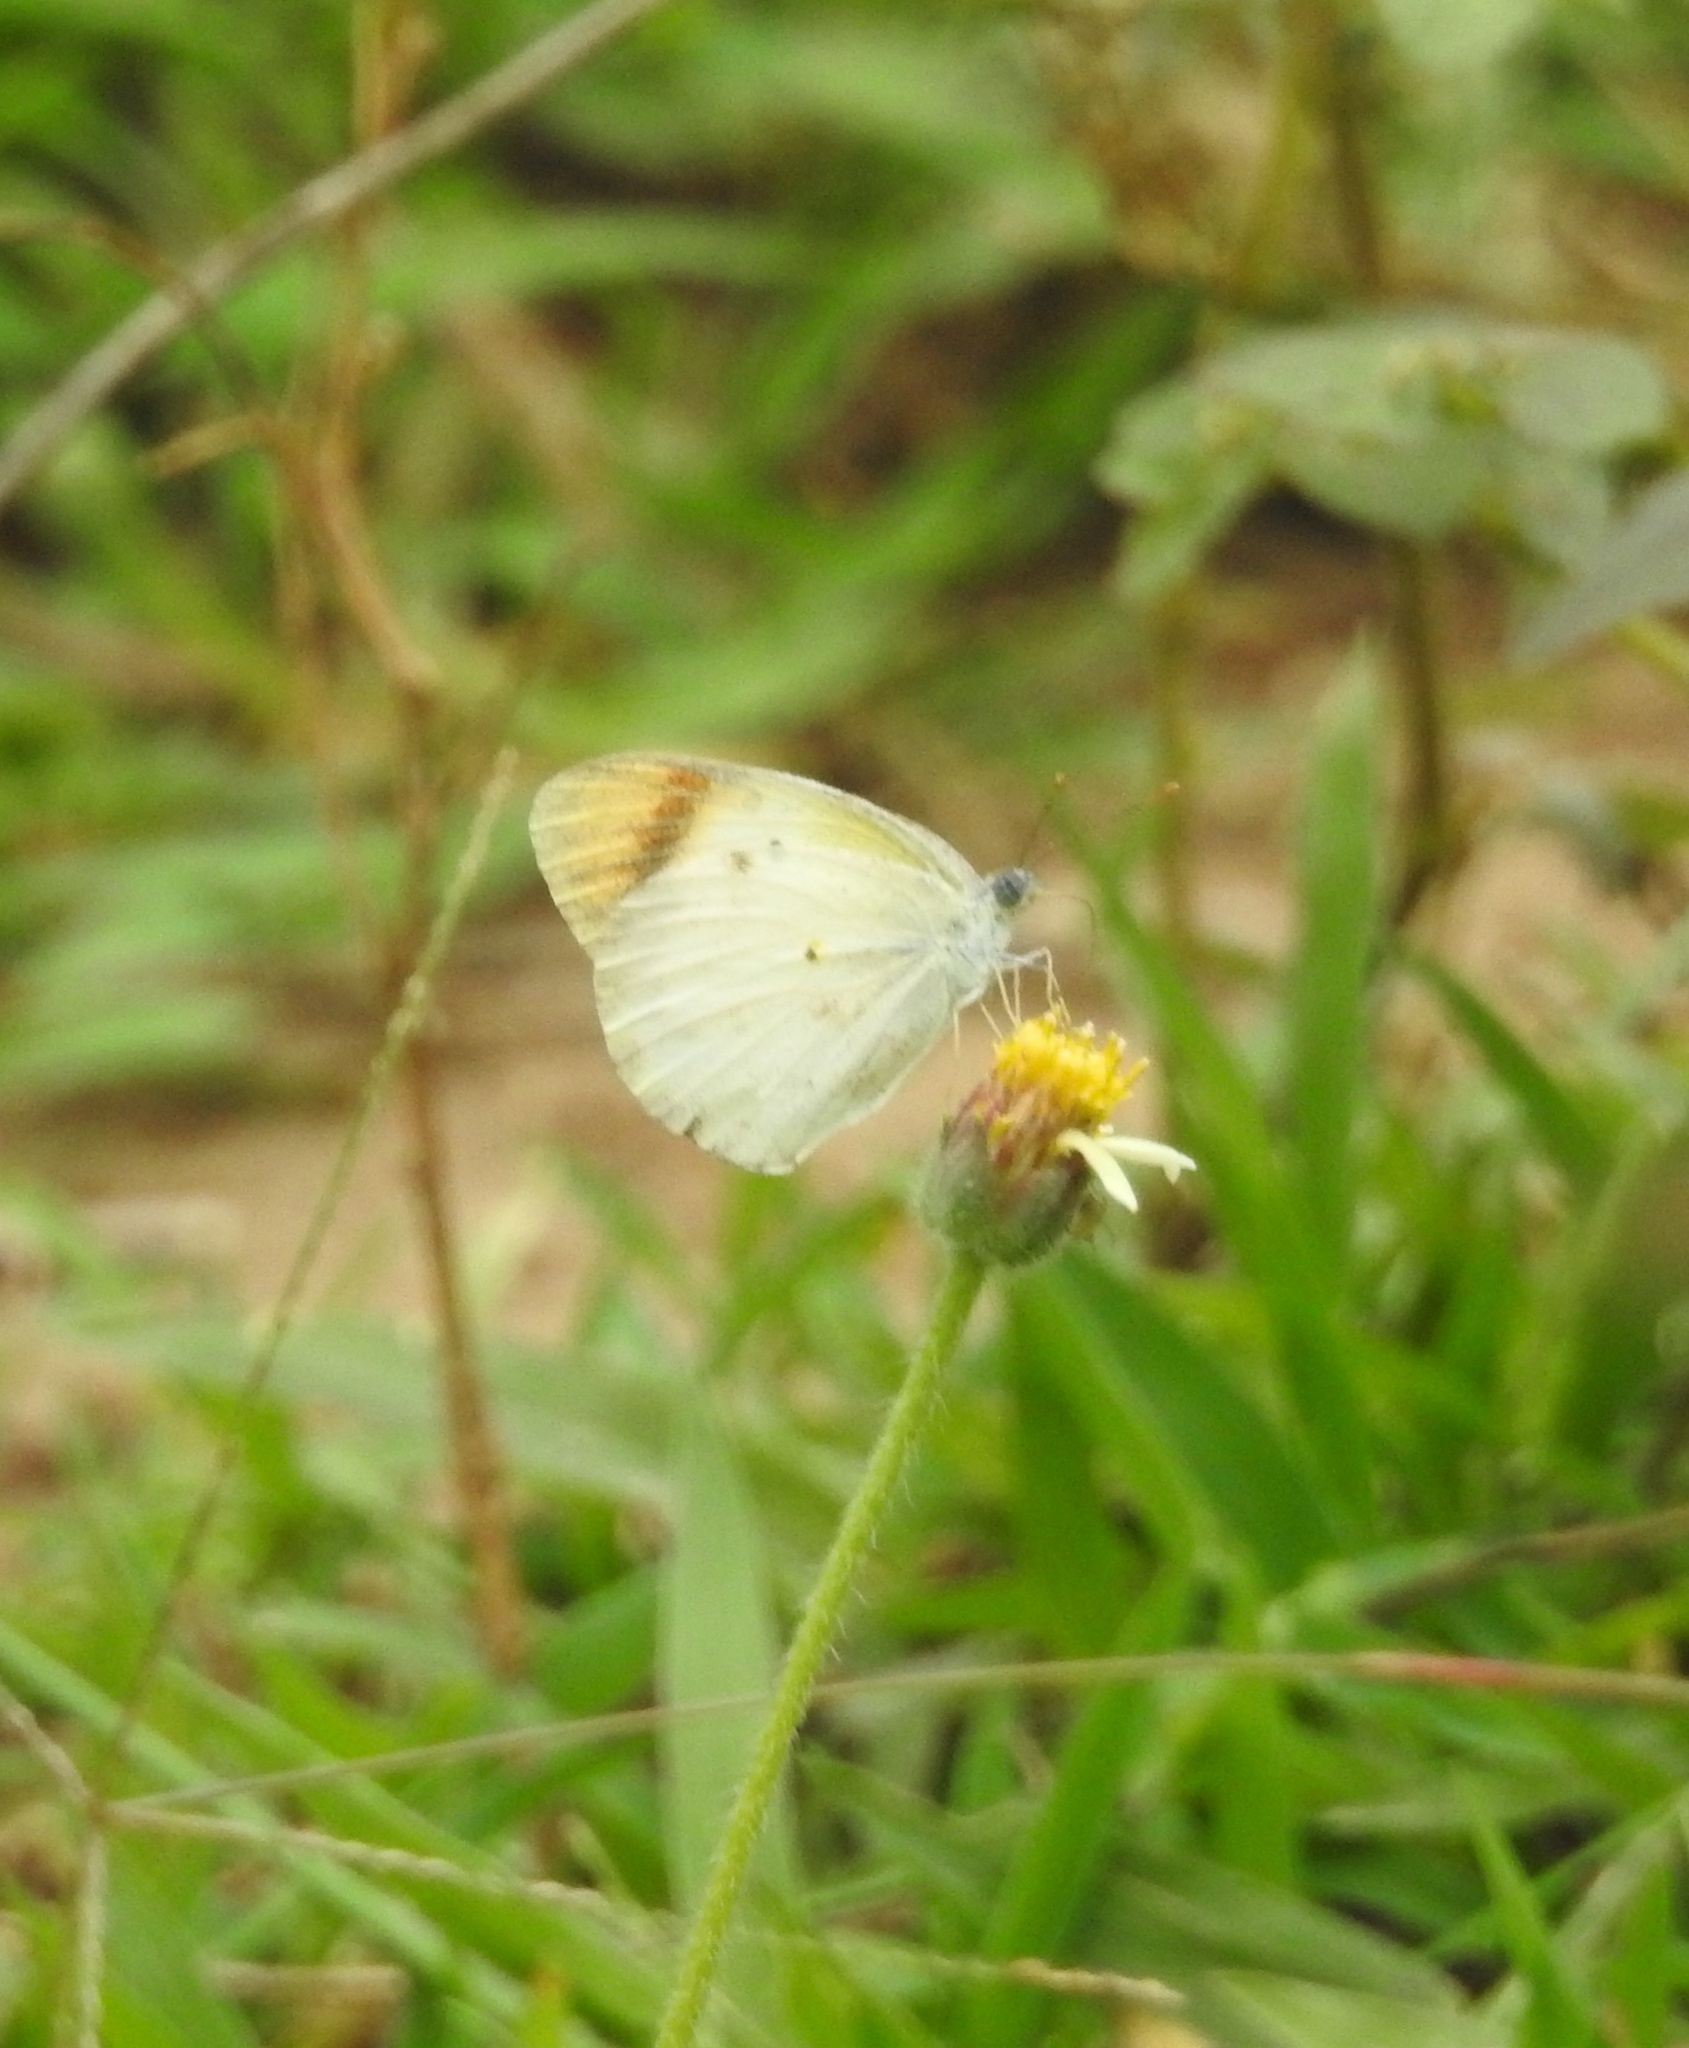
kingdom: Animalia
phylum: Arthropoda
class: Insecta
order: Lepidoptera
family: Pieridae
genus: Colotis
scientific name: Colotis etrida
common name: Little orange tip
